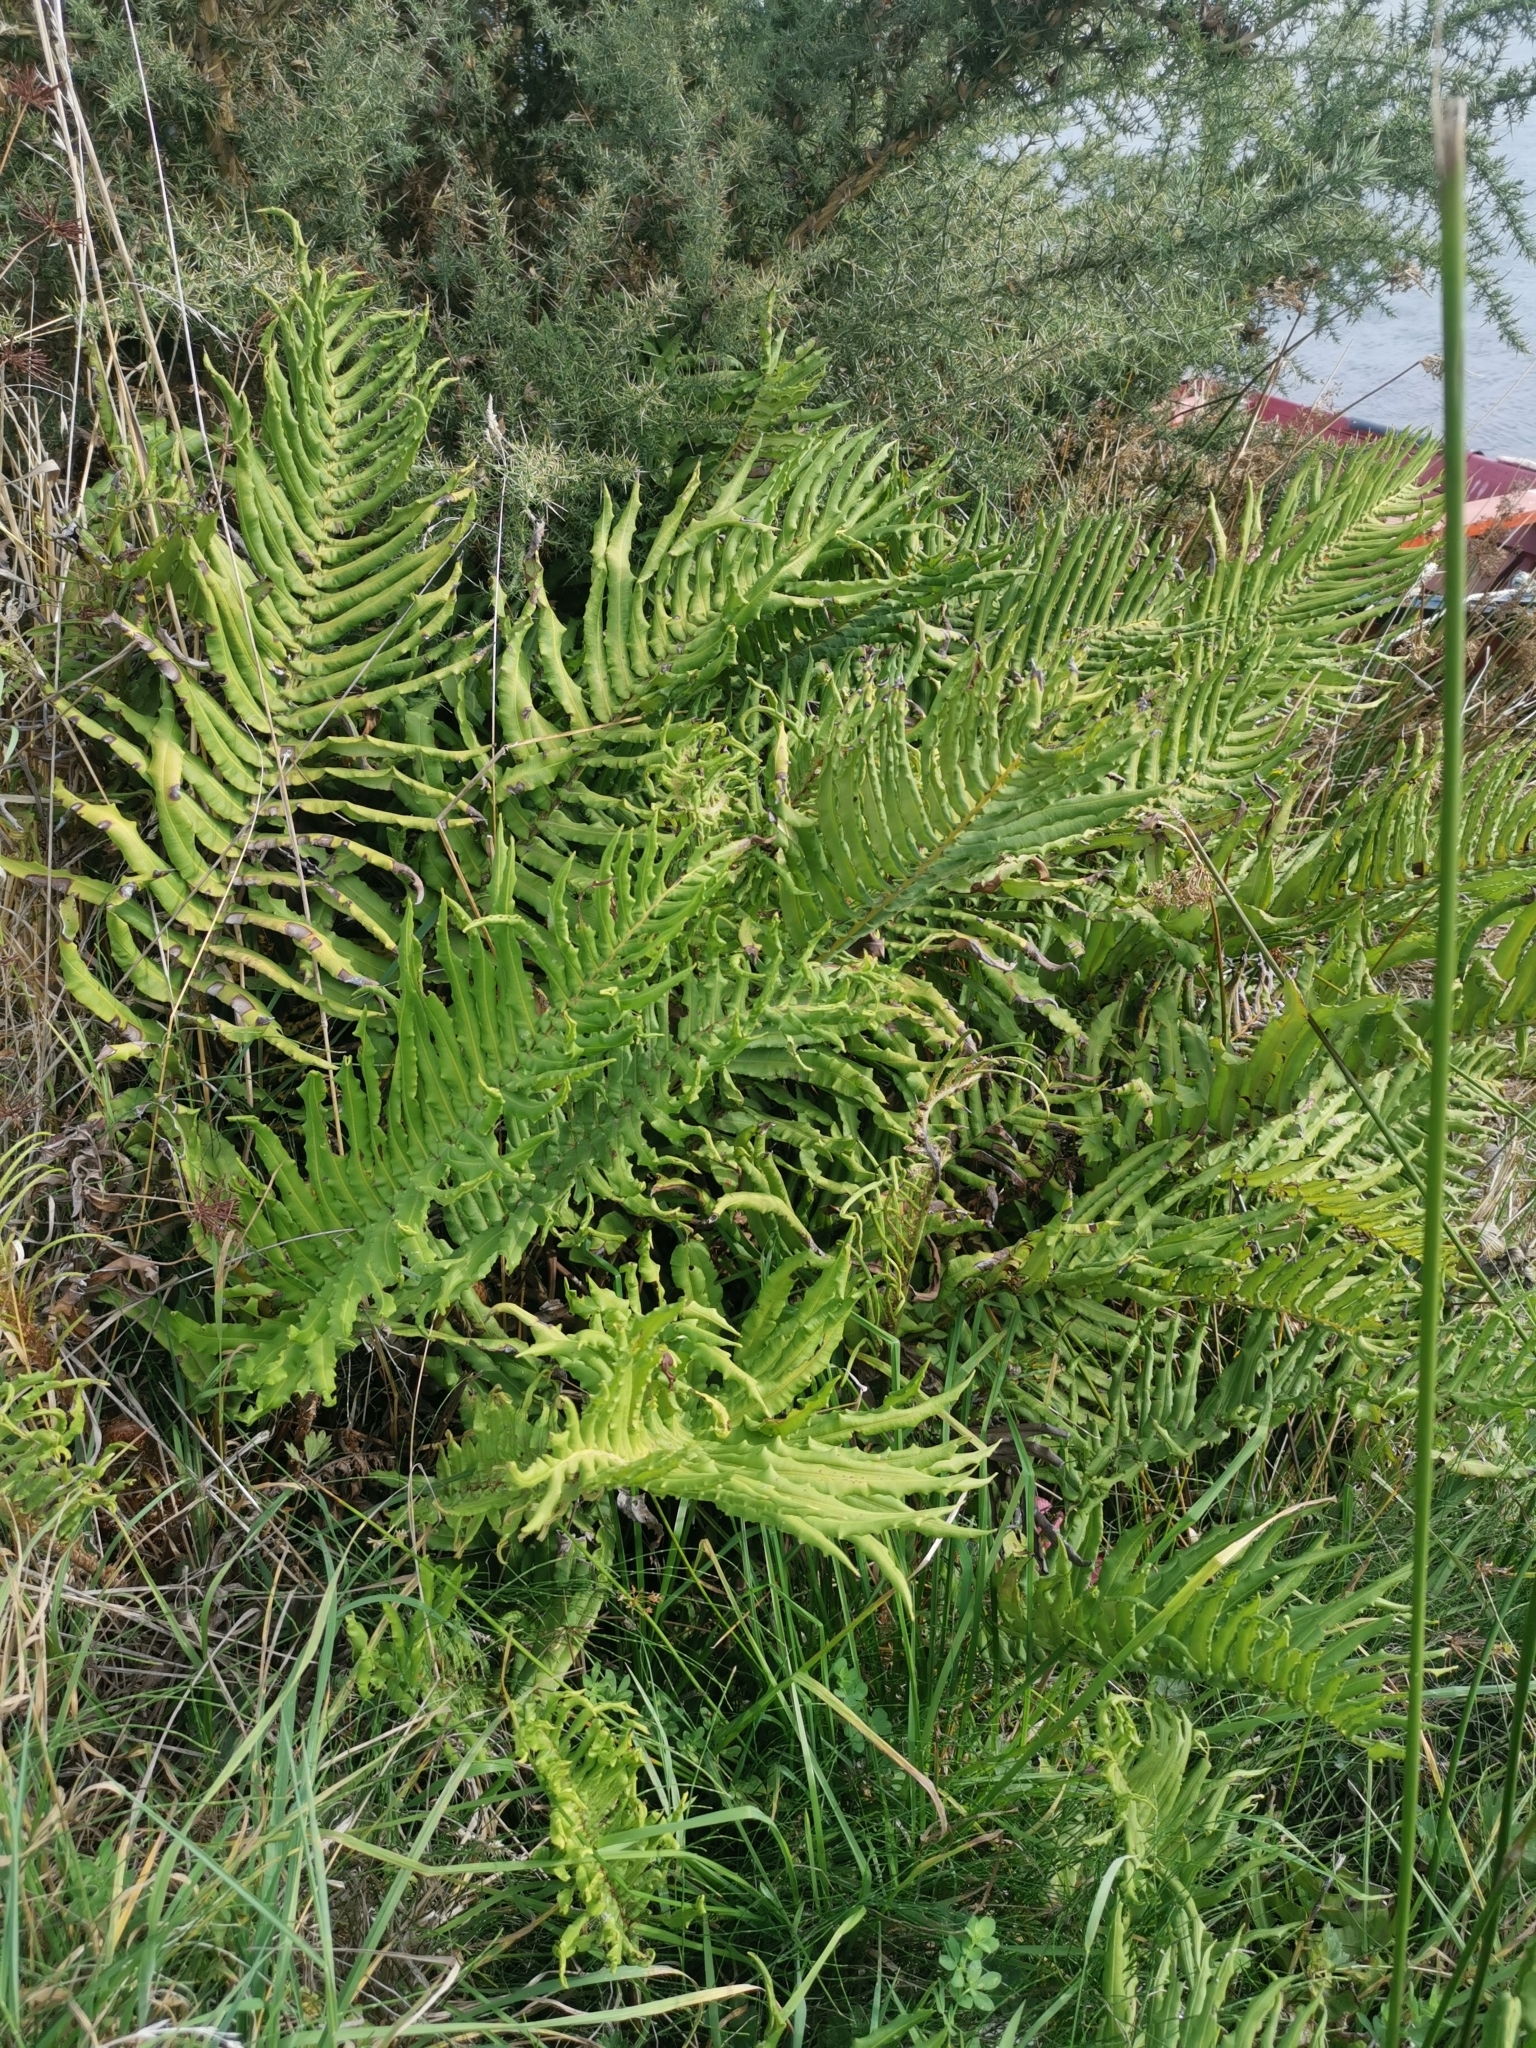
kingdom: Plantae
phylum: Tracheophyta
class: Polypodiopsida
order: Polypodiales
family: Blechnaceae
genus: Parablechnum
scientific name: Parablechnum chilense
